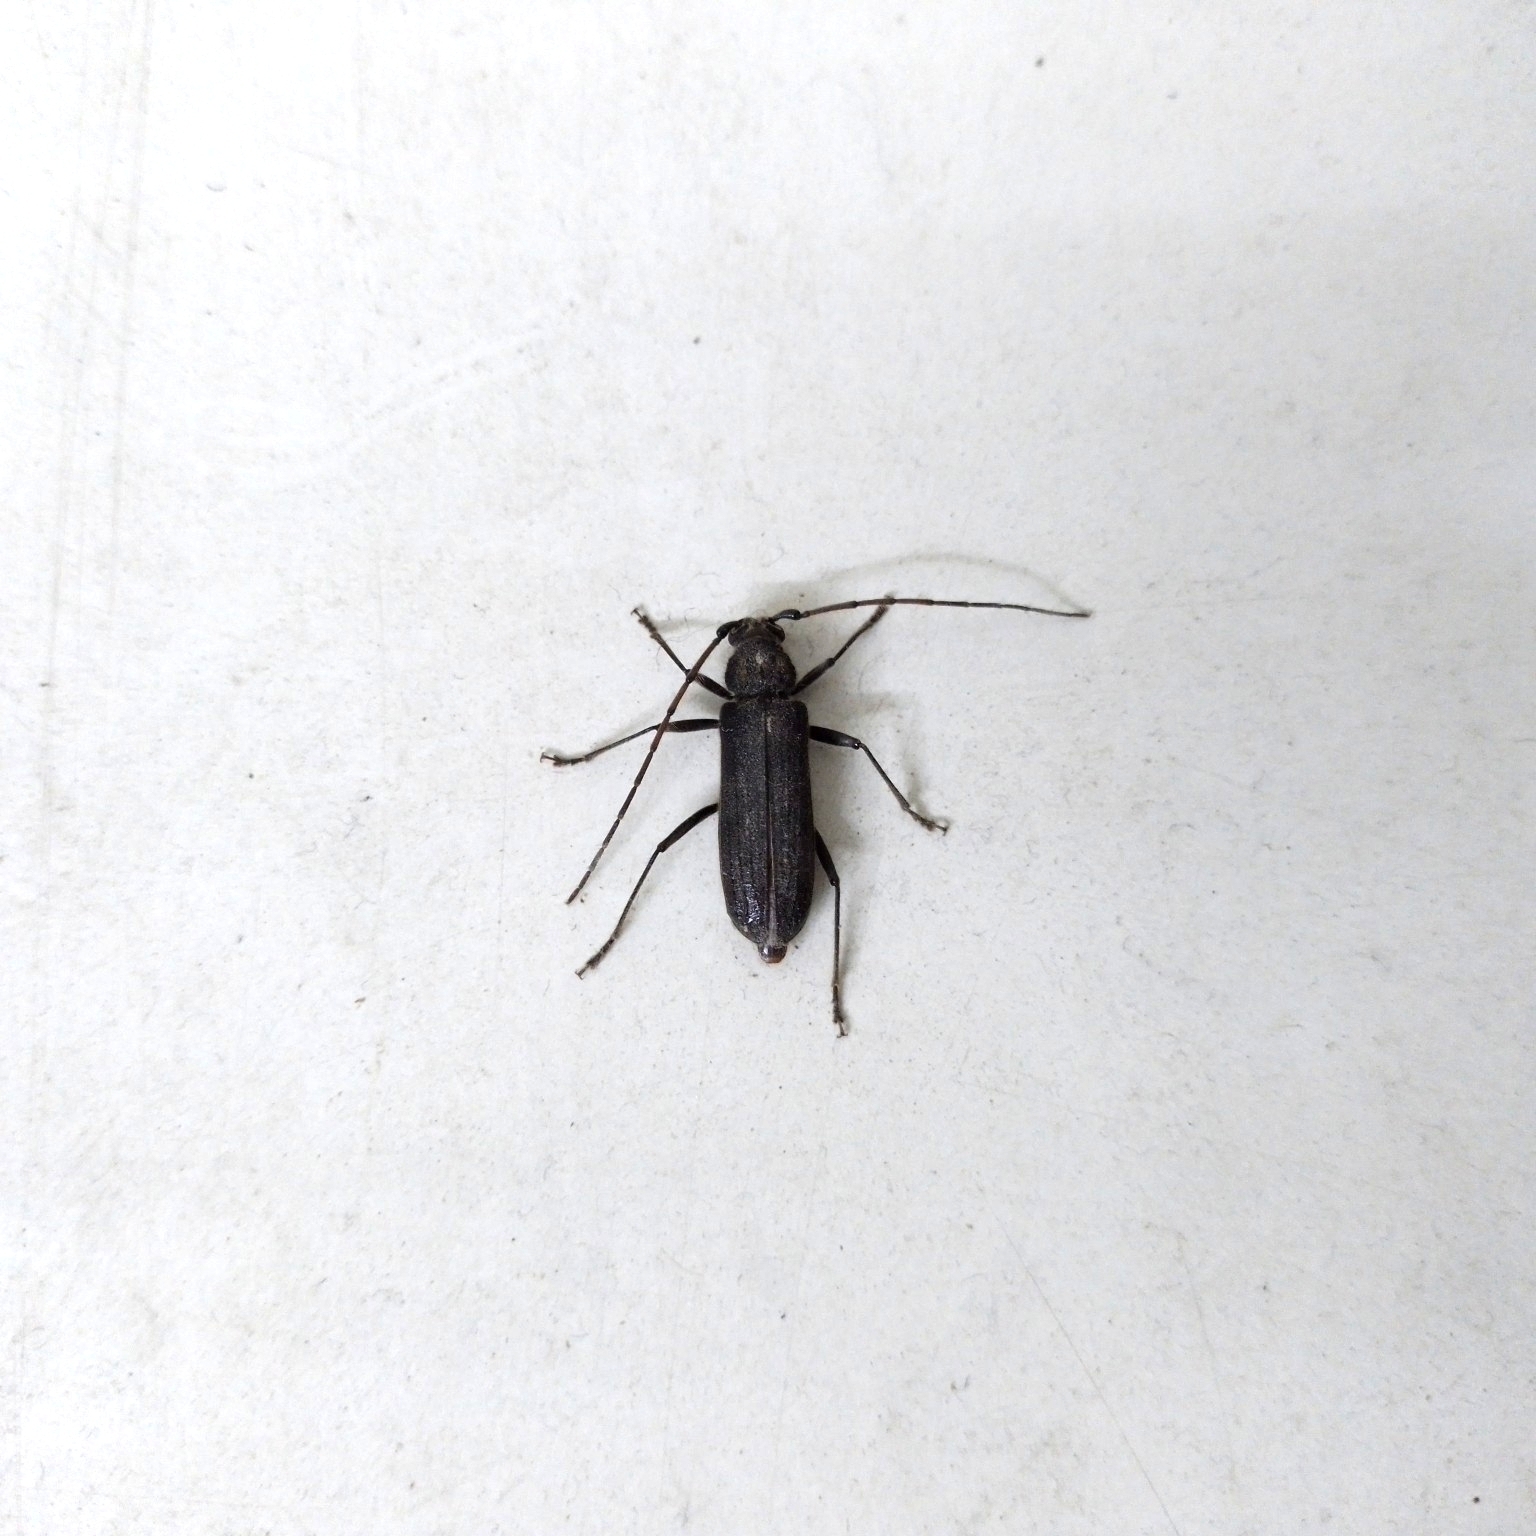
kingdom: Animalia
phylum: Arthropoda
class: Insecta
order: Coleoptera
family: Cerambycidae
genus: Stromatium
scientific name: Stromatium barbatum
